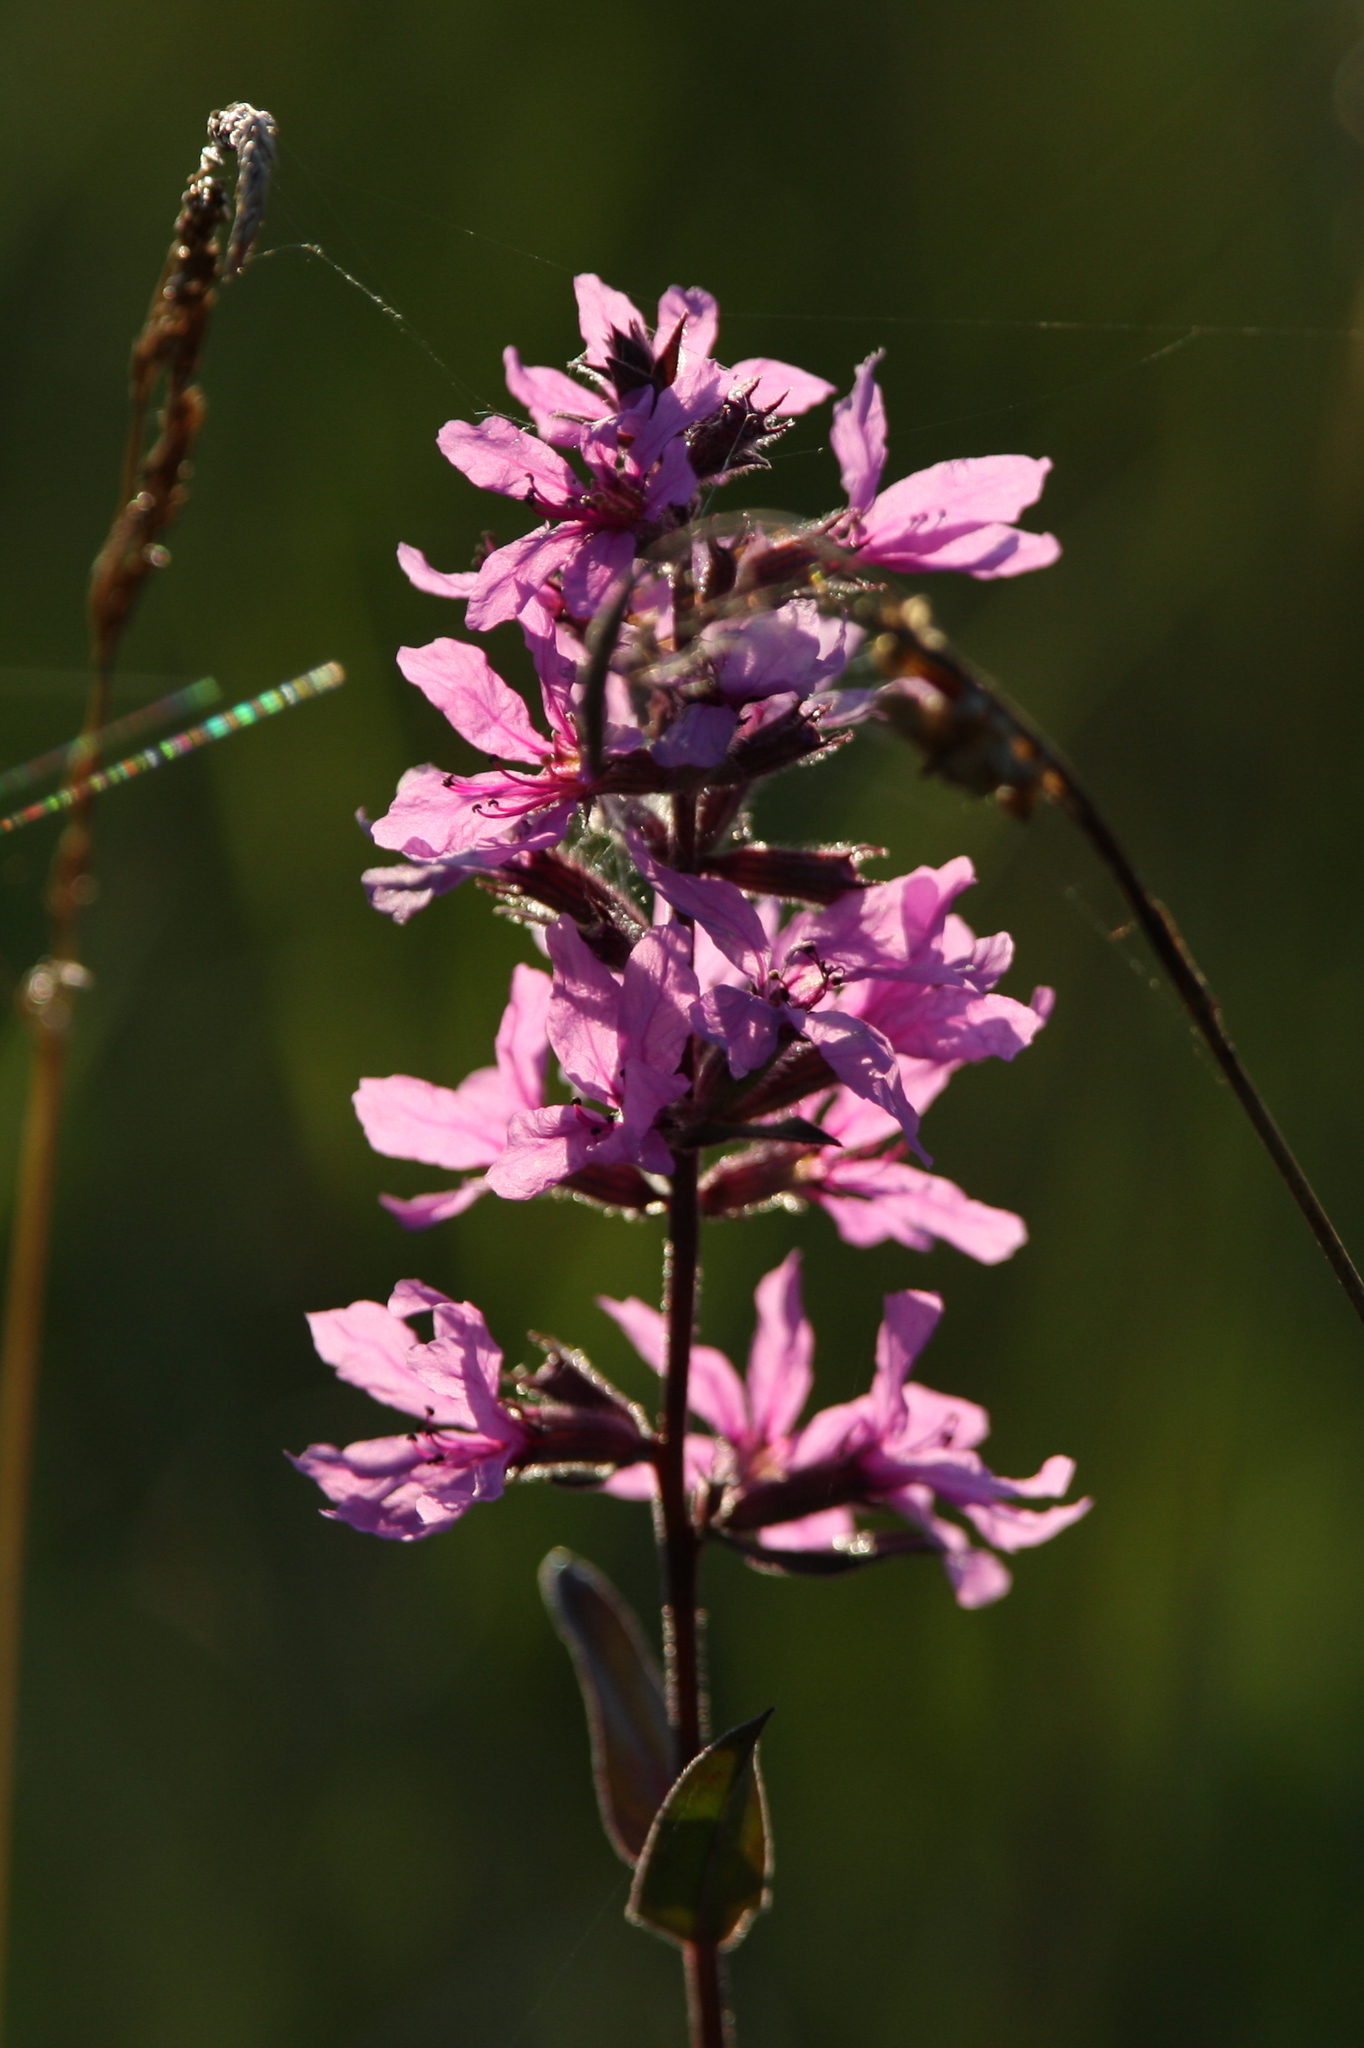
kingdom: Plantae
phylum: Tracheophyta
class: Magnoliopsida
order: Myrtales
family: Lythraceae
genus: Lythrum
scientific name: Lythrum salicaria
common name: Purple loosestrife
